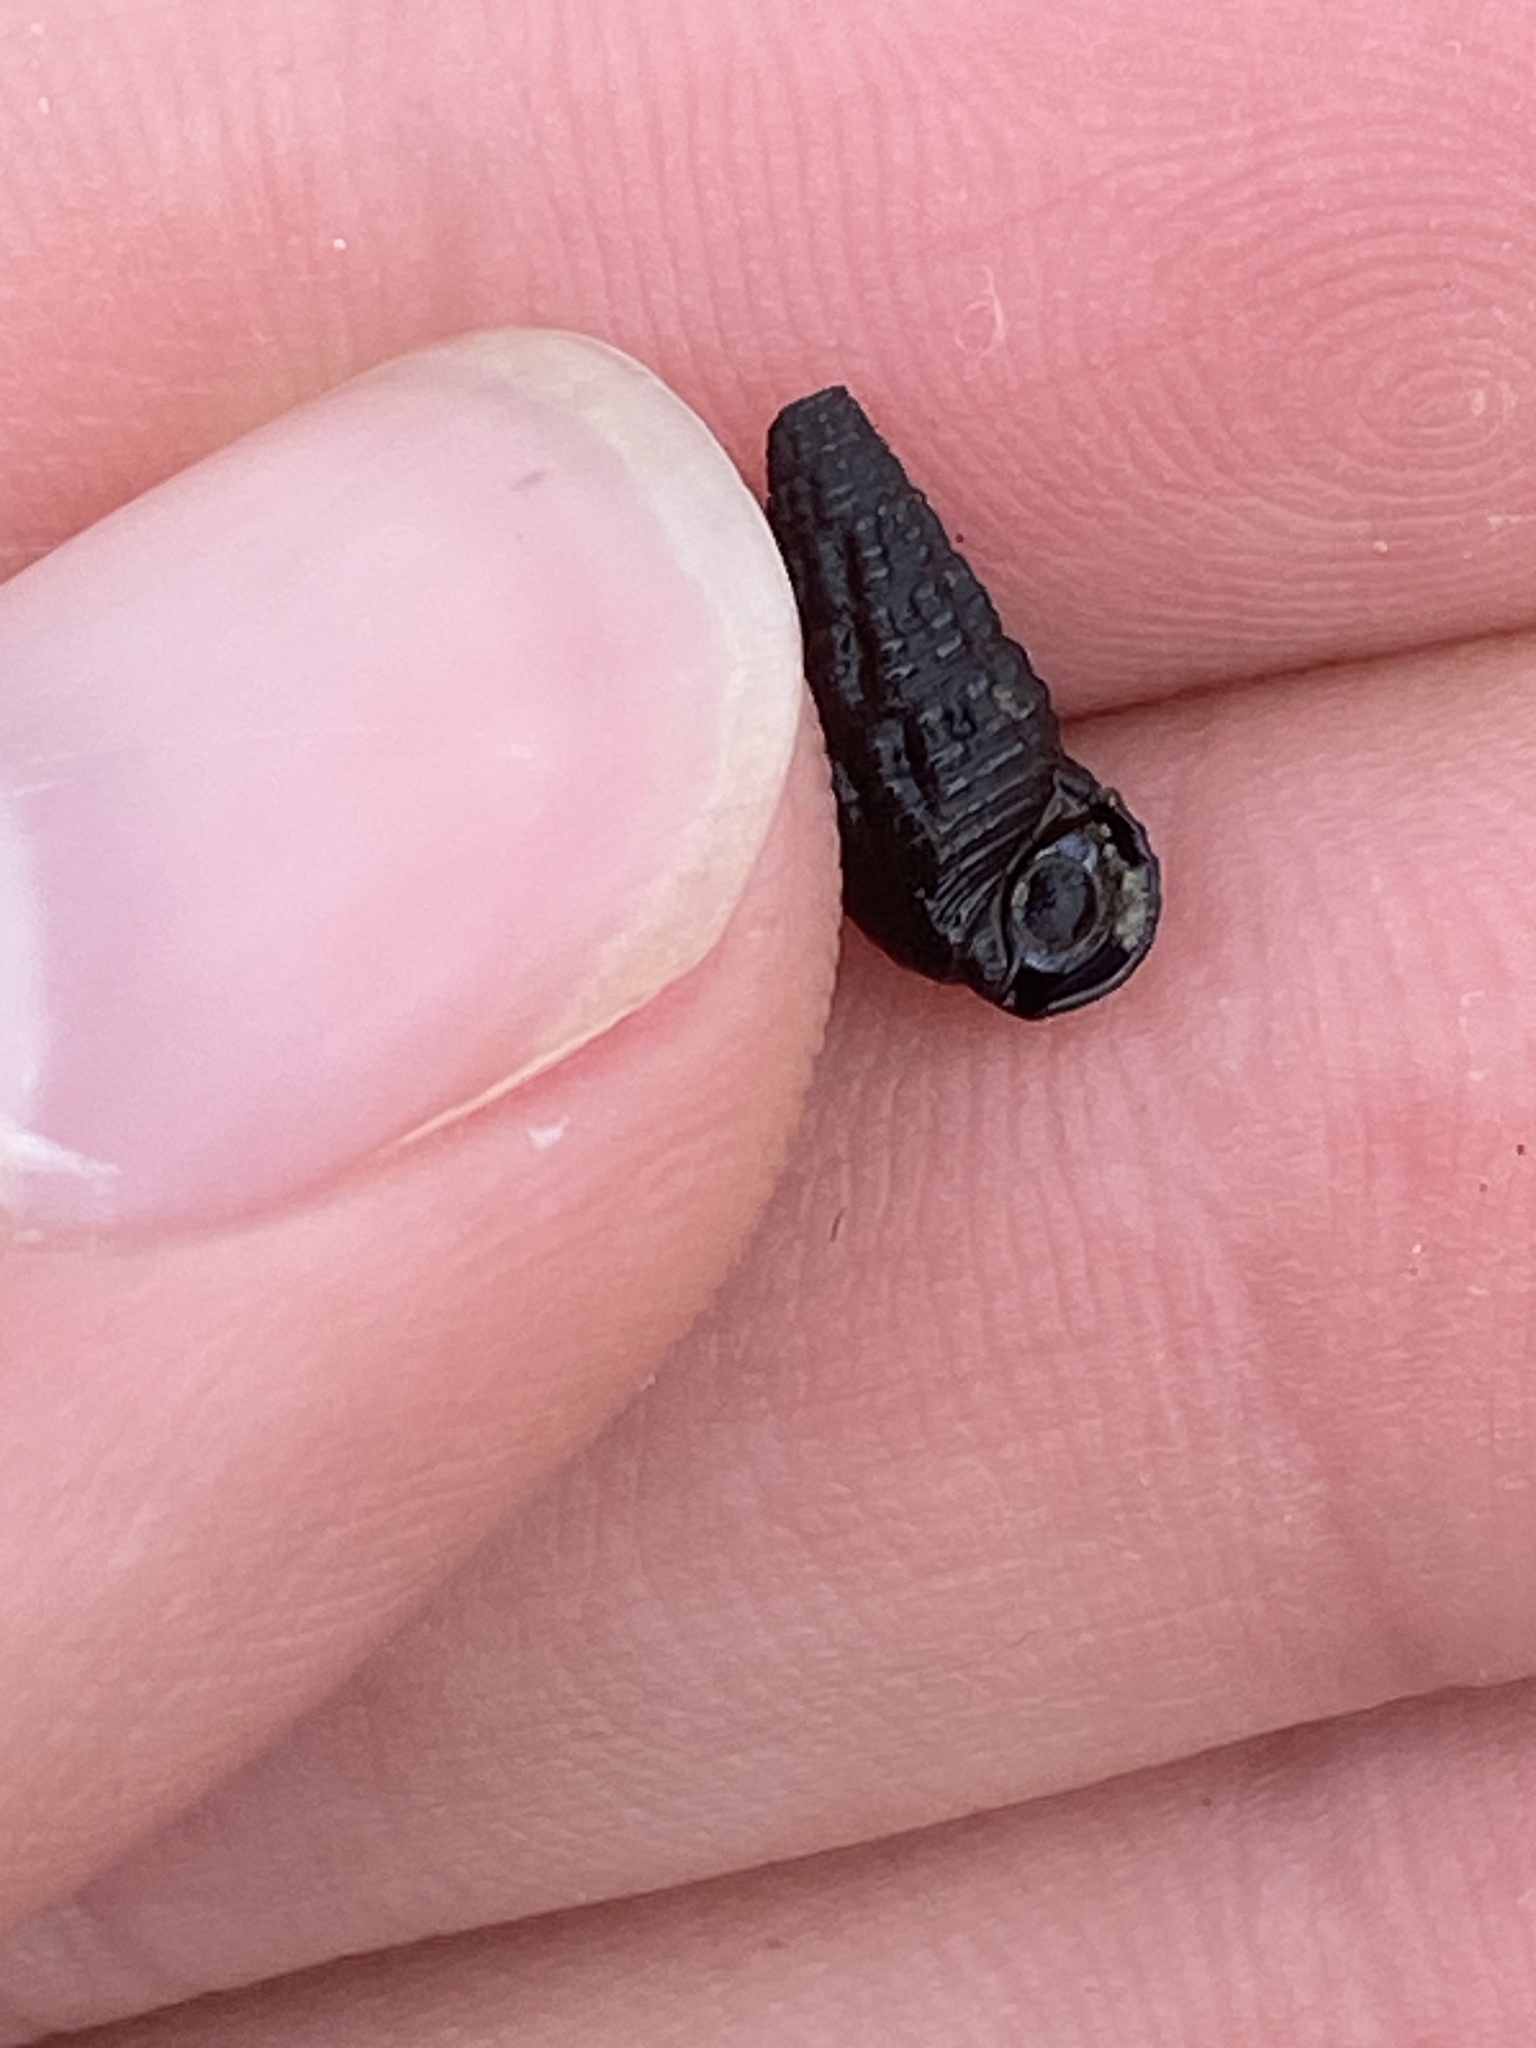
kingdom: Animalia
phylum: Mollusca
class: Gastropoda
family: Batillariidae
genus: Lampanella
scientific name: Lampanella minima
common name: West indian false cerith
